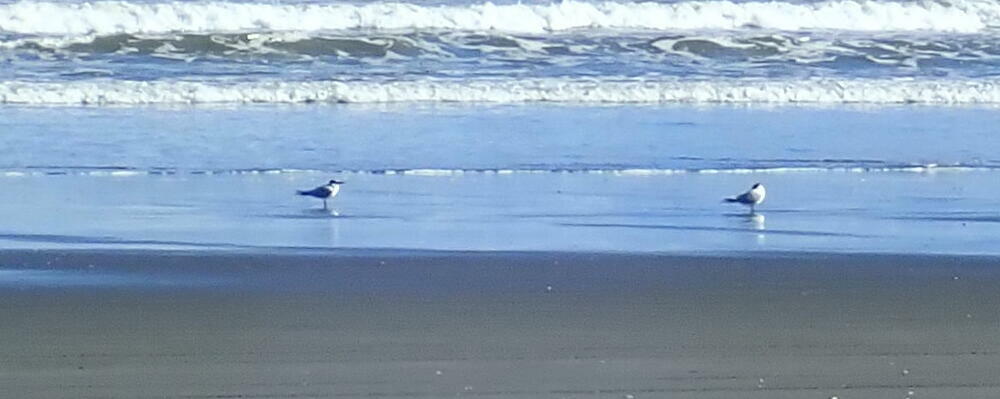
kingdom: Animalia
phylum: Chordata
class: Aves
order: Charadriiformes
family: Laridae
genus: Sterna
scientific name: Sterna striata
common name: White-fronted tern
